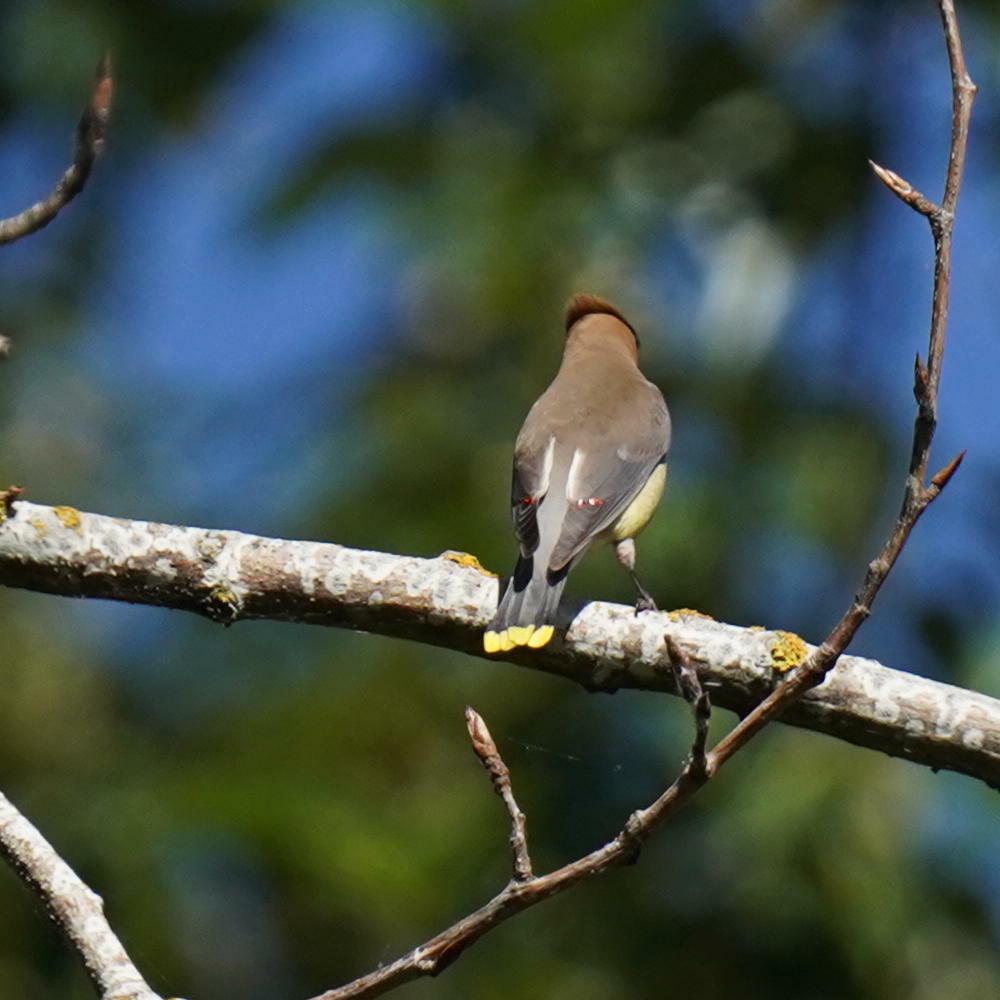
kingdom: Animalia
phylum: Chordata
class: Aves
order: Passeriformes
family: Bombycillidae
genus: Bombycilla
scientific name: Bombycilla cedrorum
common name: Cedar waxwing
